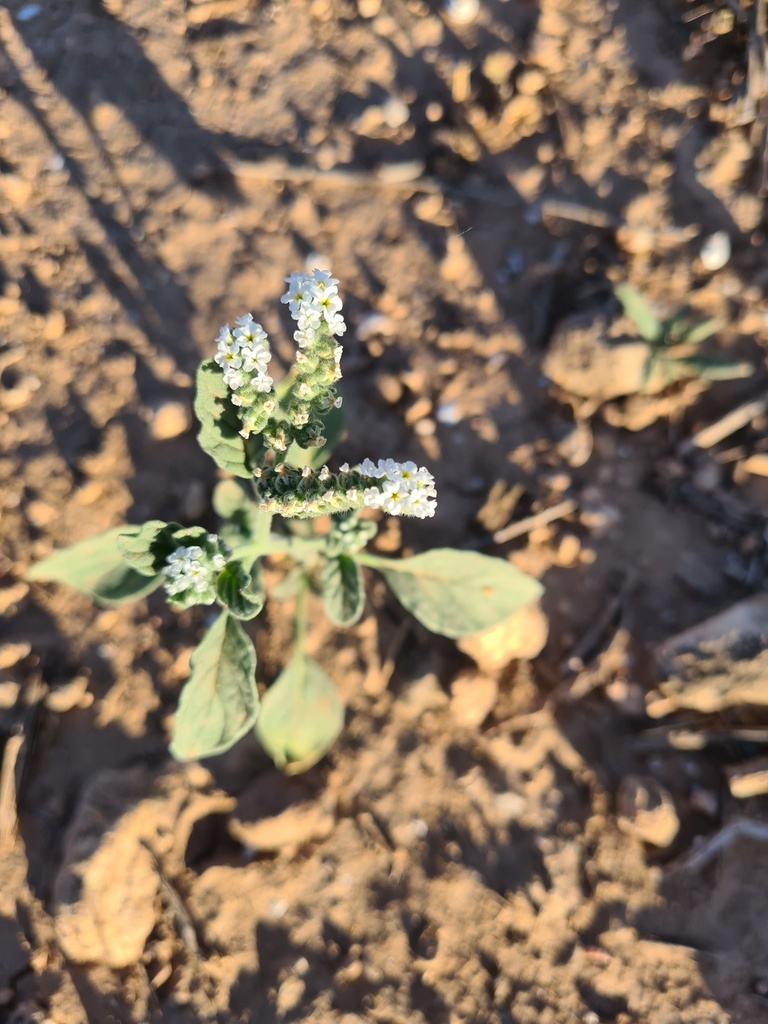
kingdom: Plantae
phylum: Tracheophyta
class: Magnoliopsida
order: Boraginales
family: Heliotropiaceae
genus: Heliotropium
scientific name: Heliotropium europaeum
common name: European heliotrope
